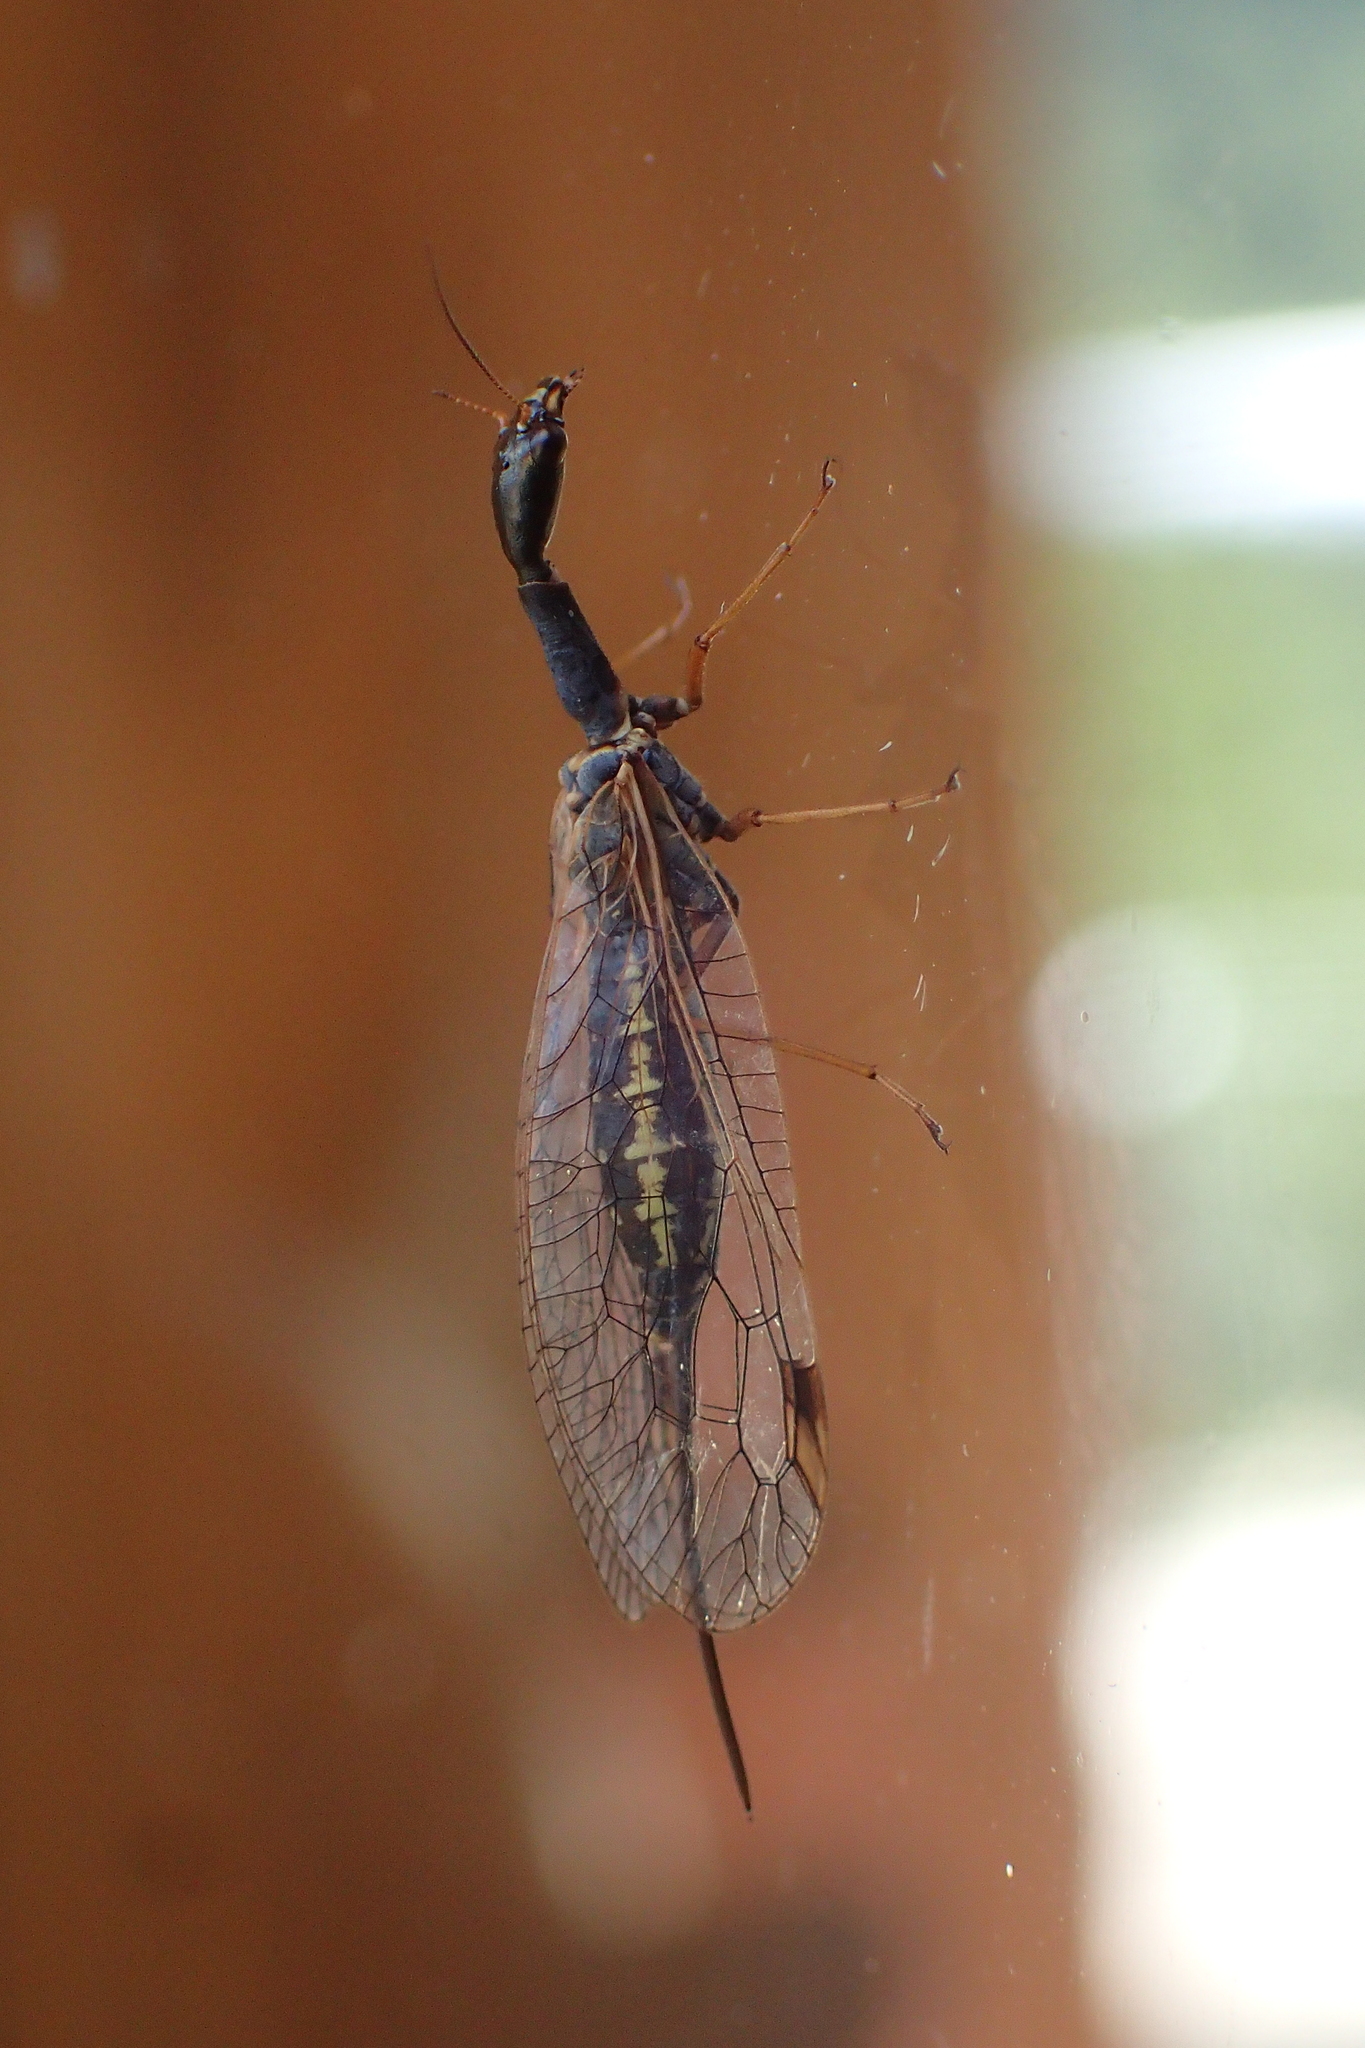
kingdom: Animalia
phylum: Arthropoda
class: Insecta
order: Raphidioptera
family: Raphidiidae
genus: Dichrostigma
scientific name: Dichrostigma flavipes
